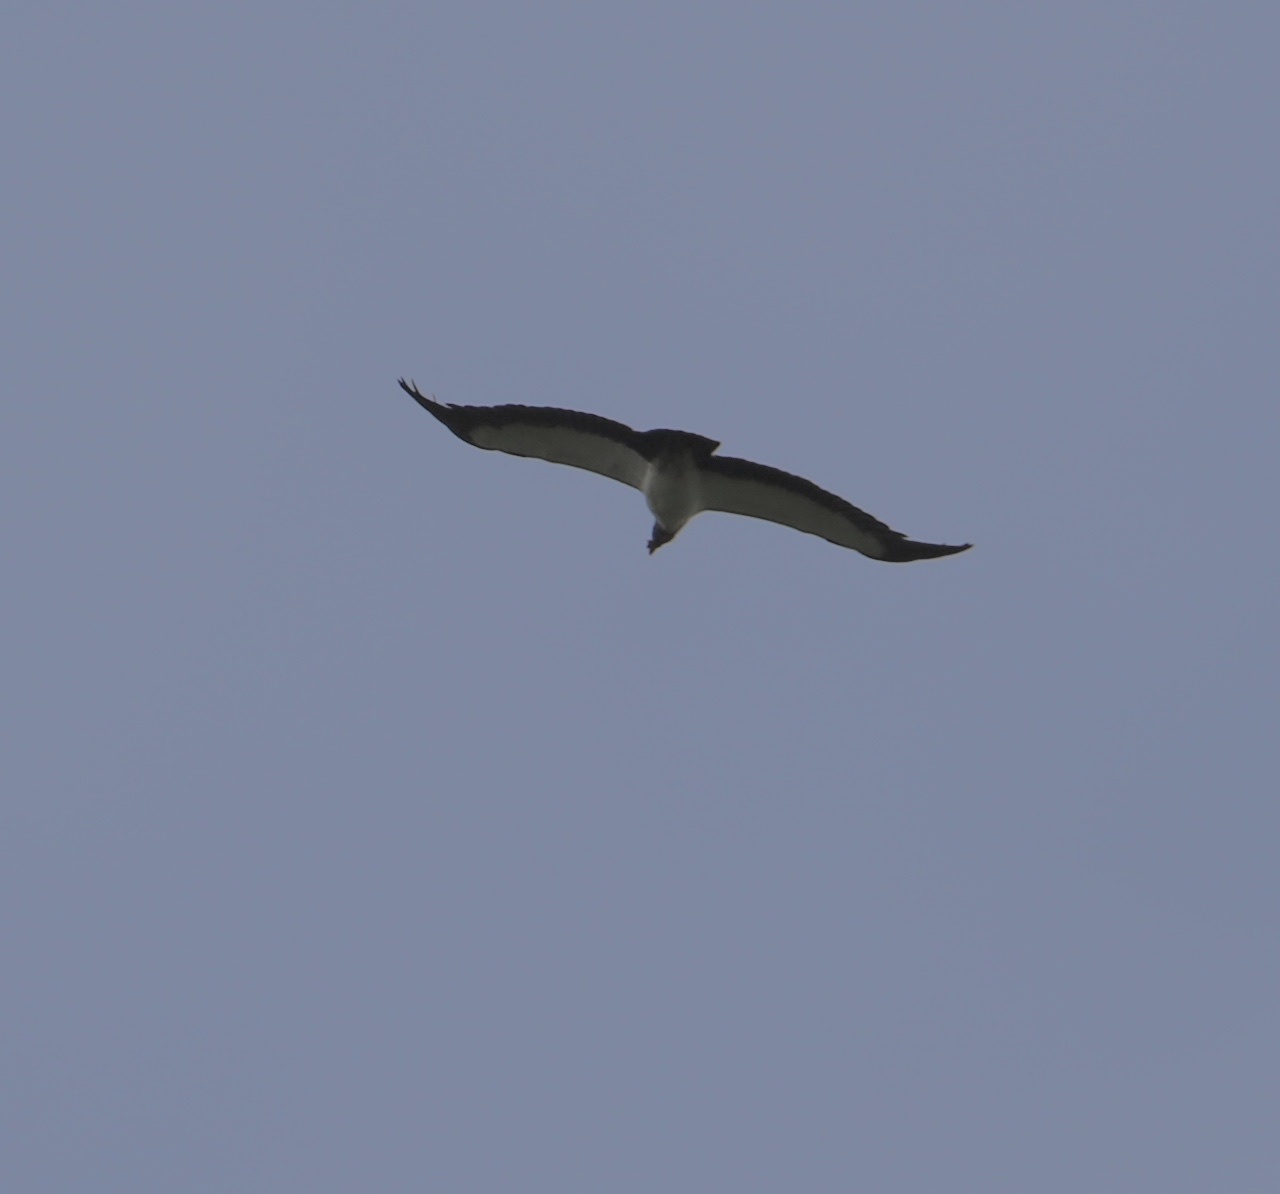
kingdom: Animalia
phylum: Chordata
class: Aves
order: Accipitriformes
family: Cathartidae
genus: Sarcoramphus
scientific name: Sarcoramphus papa
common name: King vulture
